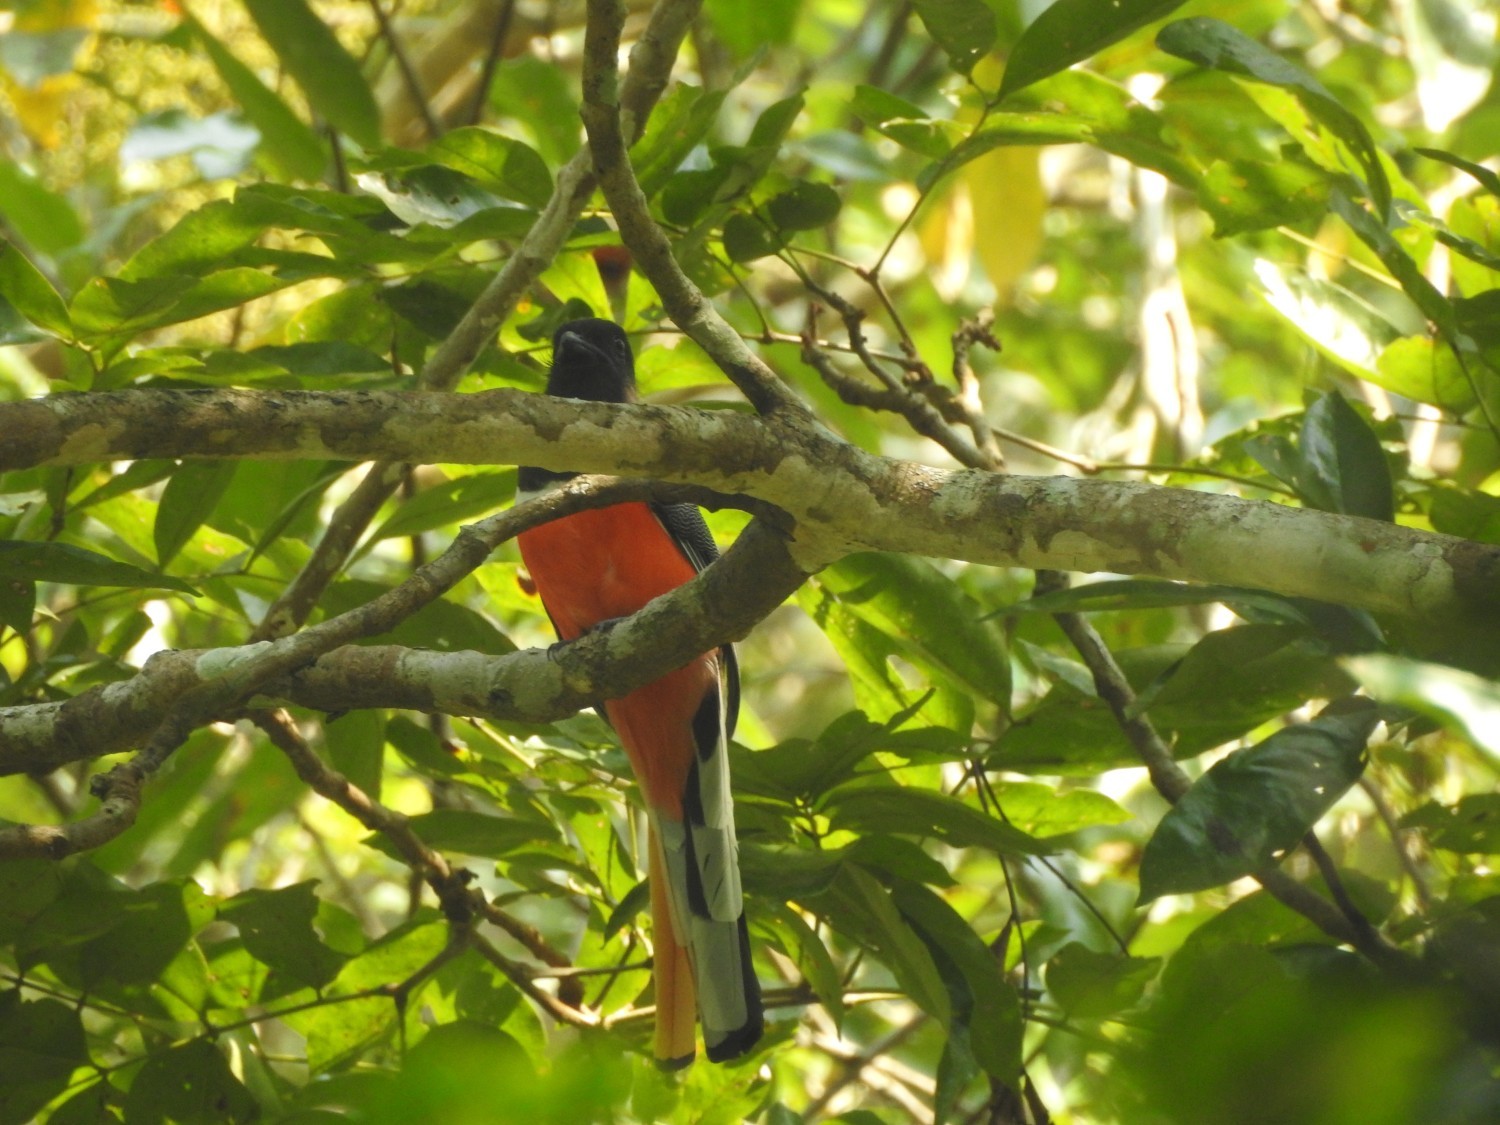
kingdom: Animalia
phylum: Chordata
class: Aves
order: Trogoniformes
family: Trogonidae
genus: Harpactes
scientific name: Harpactes fasciatus
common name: Malabar trogon
